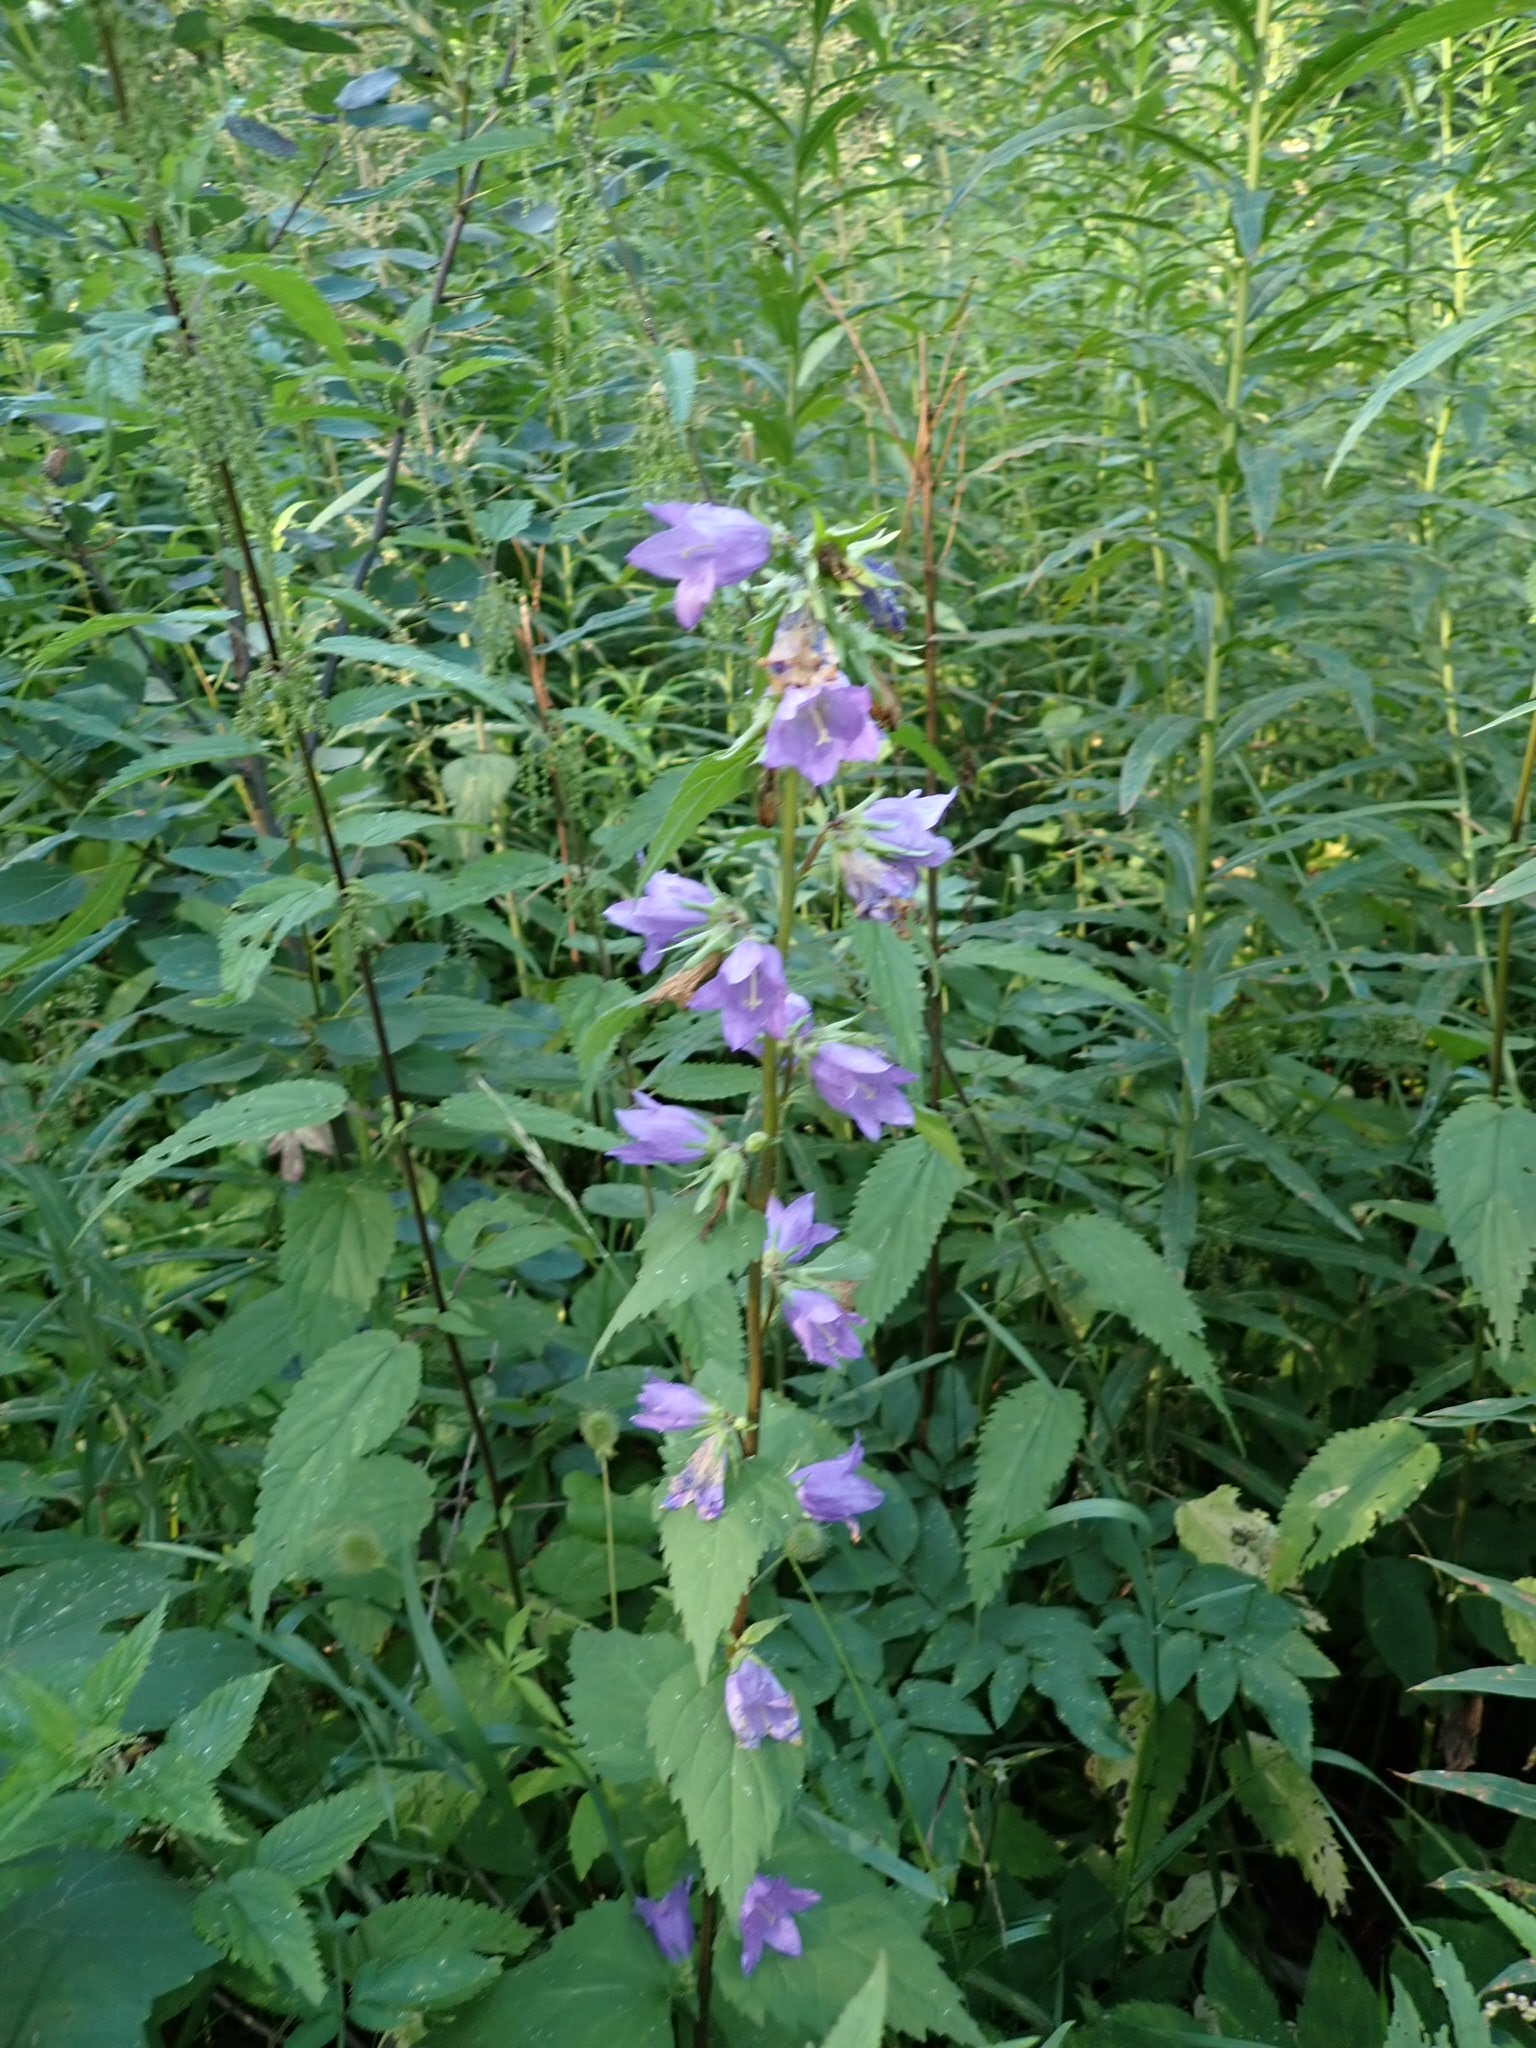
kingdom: Plantae
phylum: Tracheophyta
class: Magnoliopsida
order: Asterales
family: Campanulaceae
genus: Campanula
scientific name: Campanula trachelium
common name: Nettle-leaved bellflower
